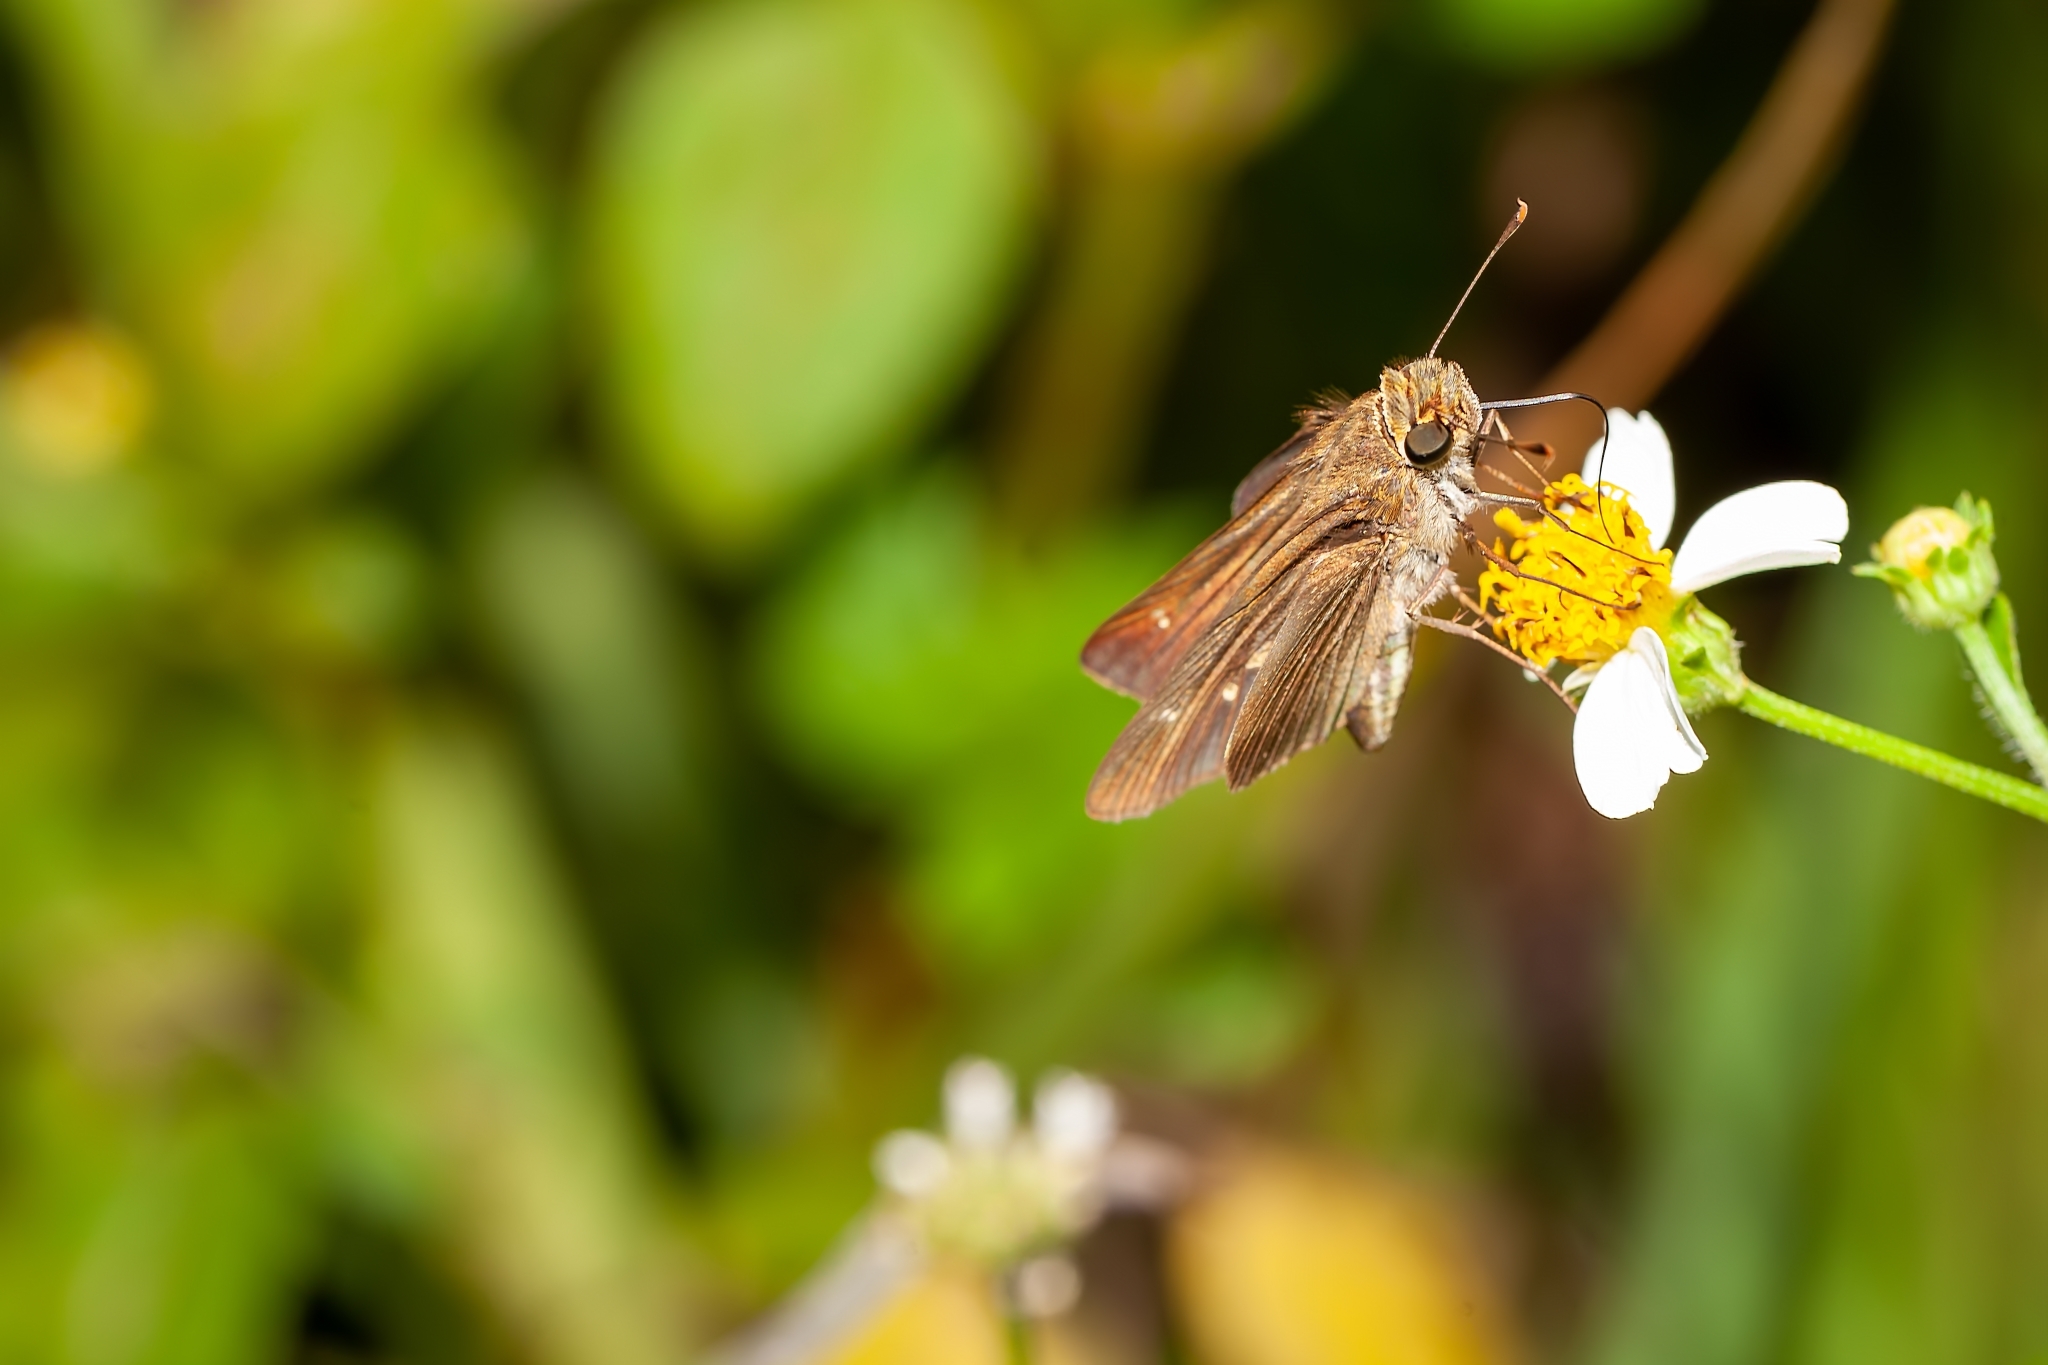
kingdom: Animalia
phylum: Arthropoda
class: Insecta
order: Lepidoptera
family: Hesperiidae
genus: Panoquina
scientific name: Panoquina ocola
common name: Ocola skipper
